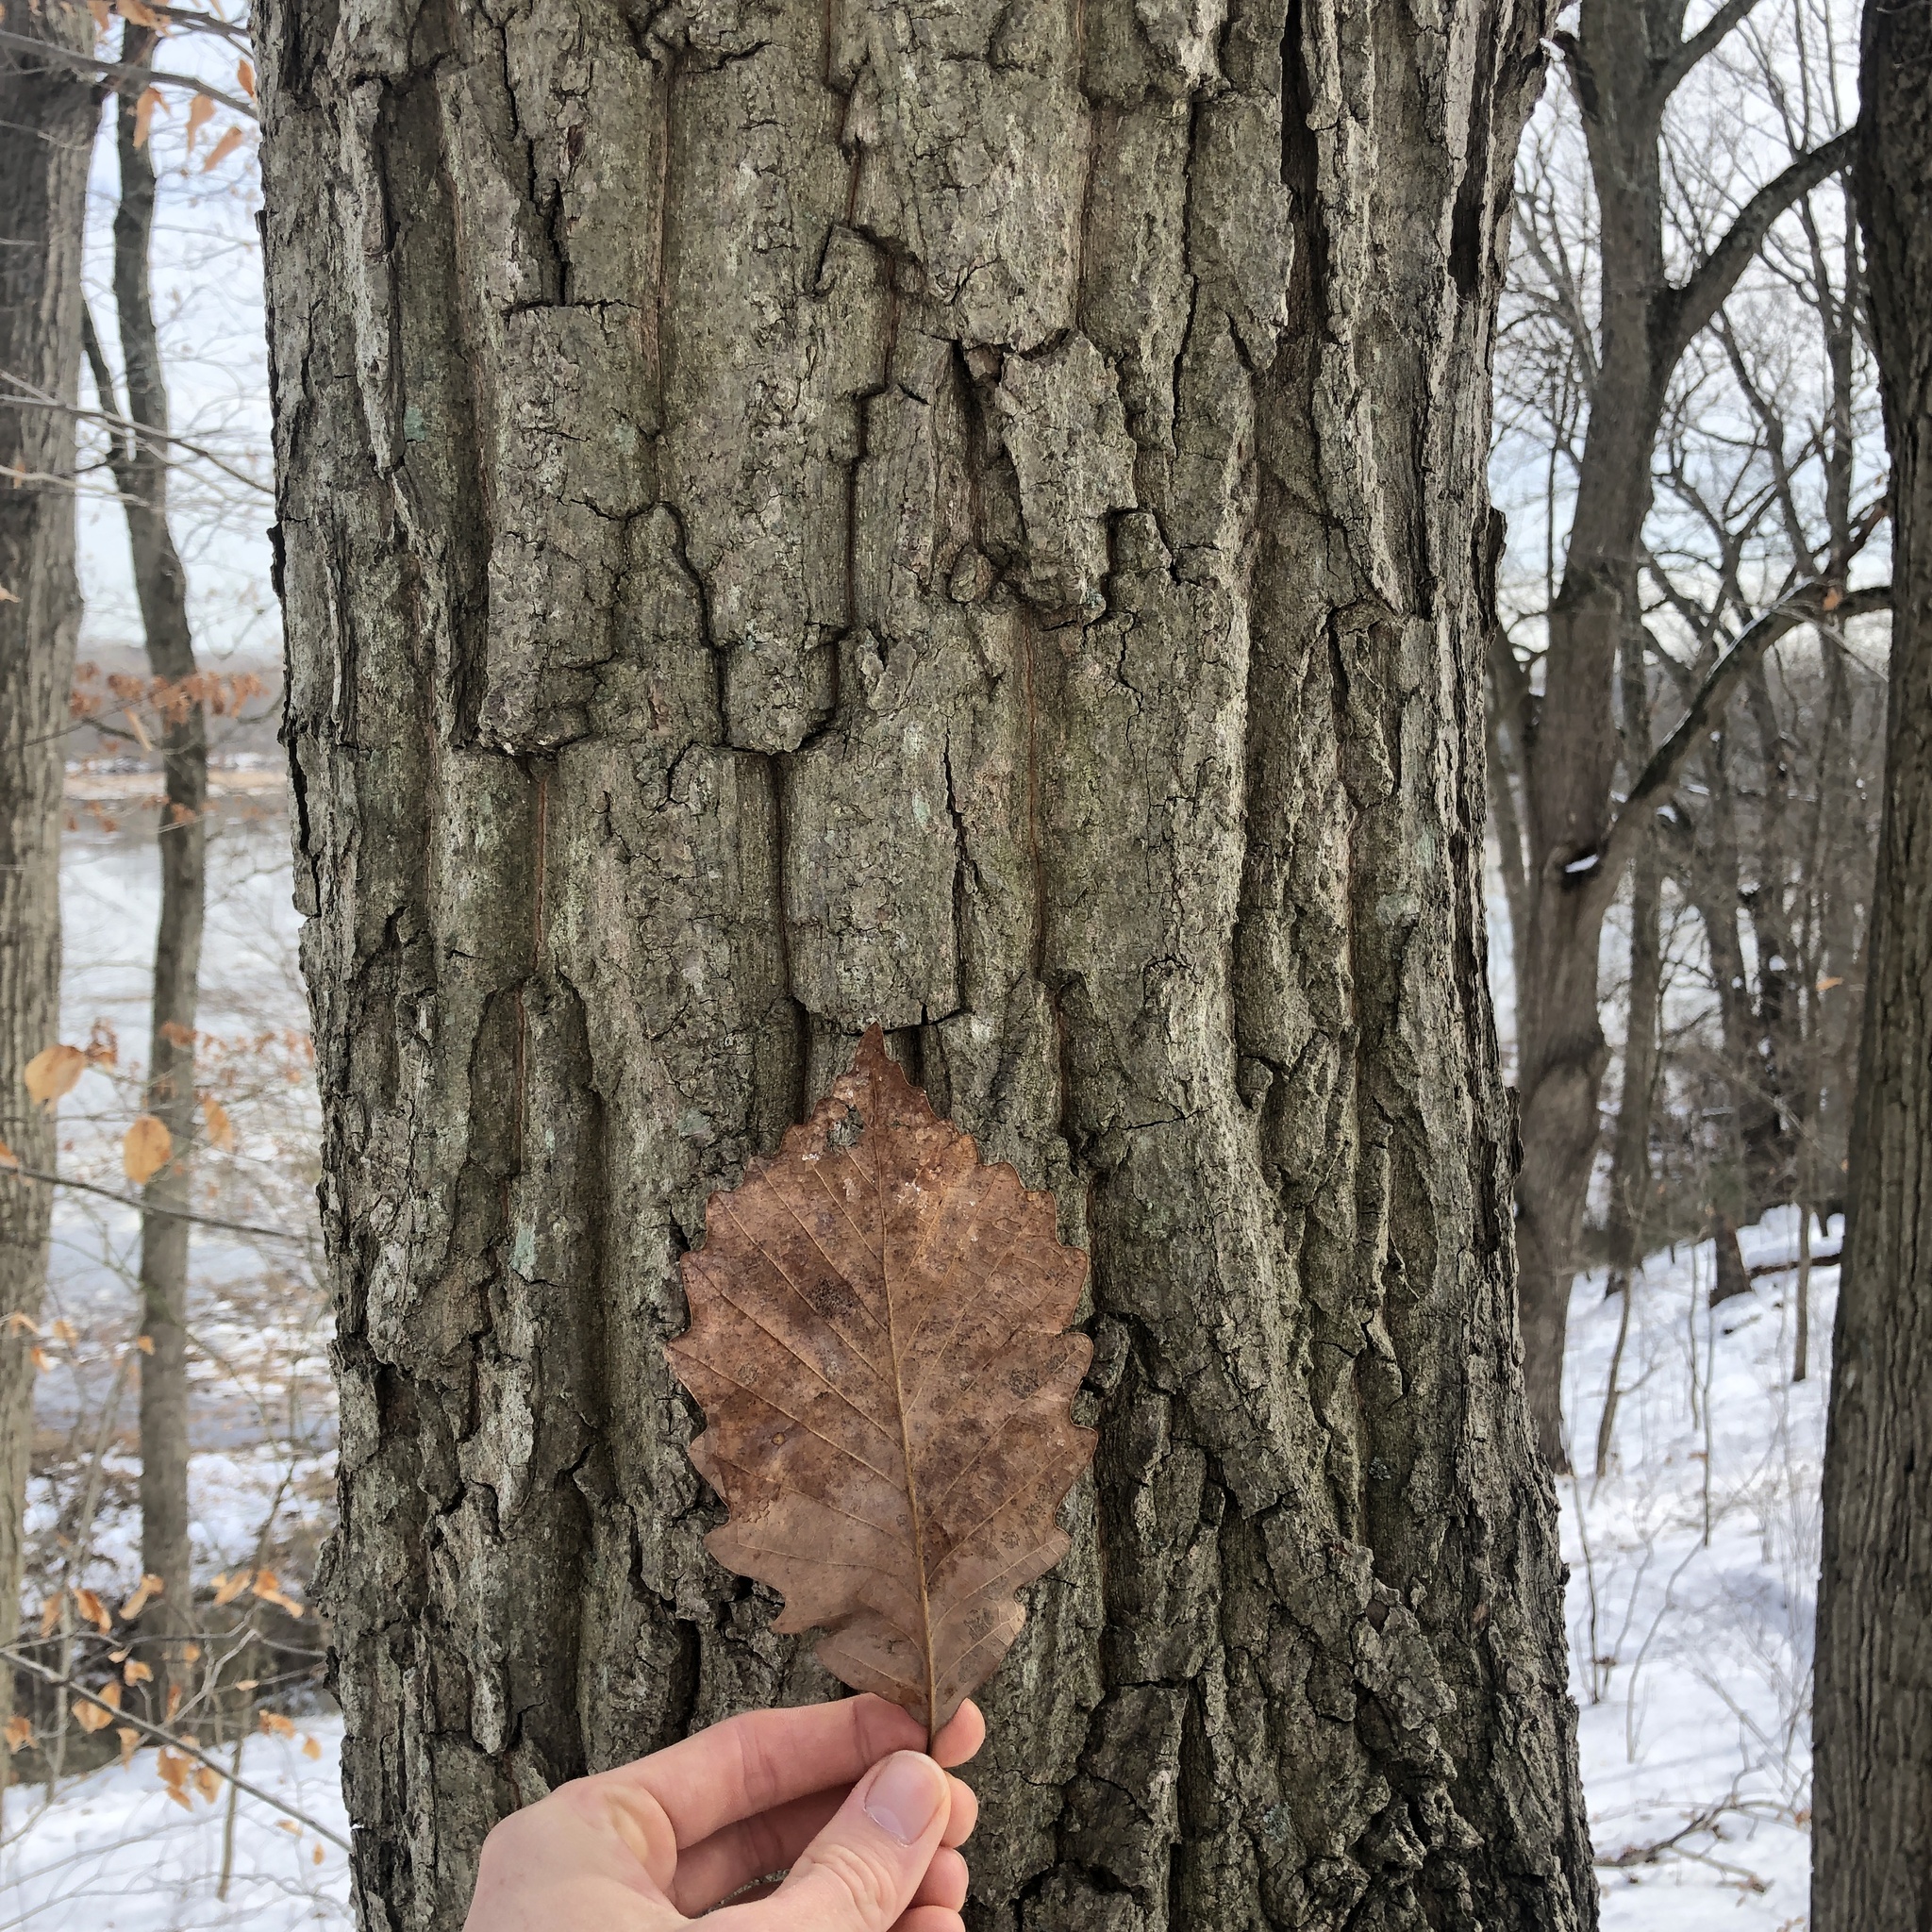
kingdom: Plantae
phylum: Tracheophyta
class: Magnoliopsida
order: Fagales
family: Fagaceae
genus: Quercus
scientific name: Quercus montana
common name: Chestnut oak
